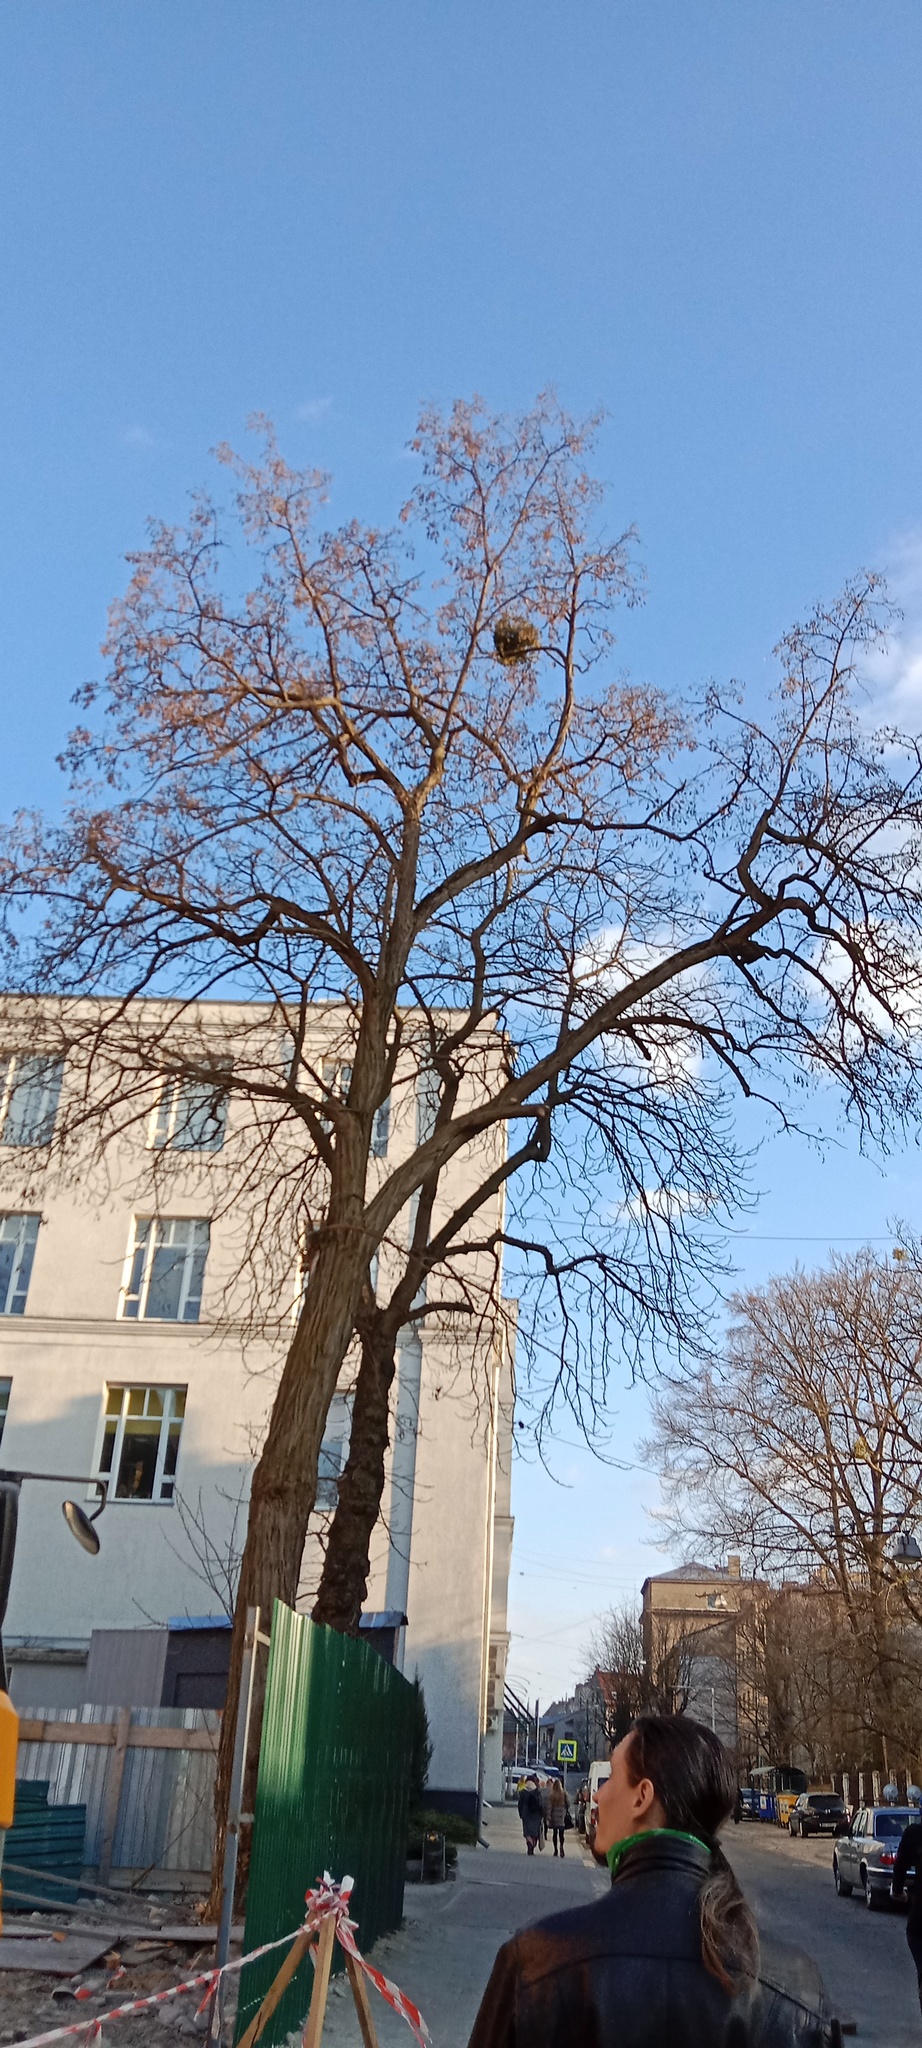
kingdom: Plantae
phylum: Tracheophyta
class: Magnoliopsida
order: Santalales
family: Viscaceae
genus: Viscum
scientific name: Viscum album
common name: Mistletoe
